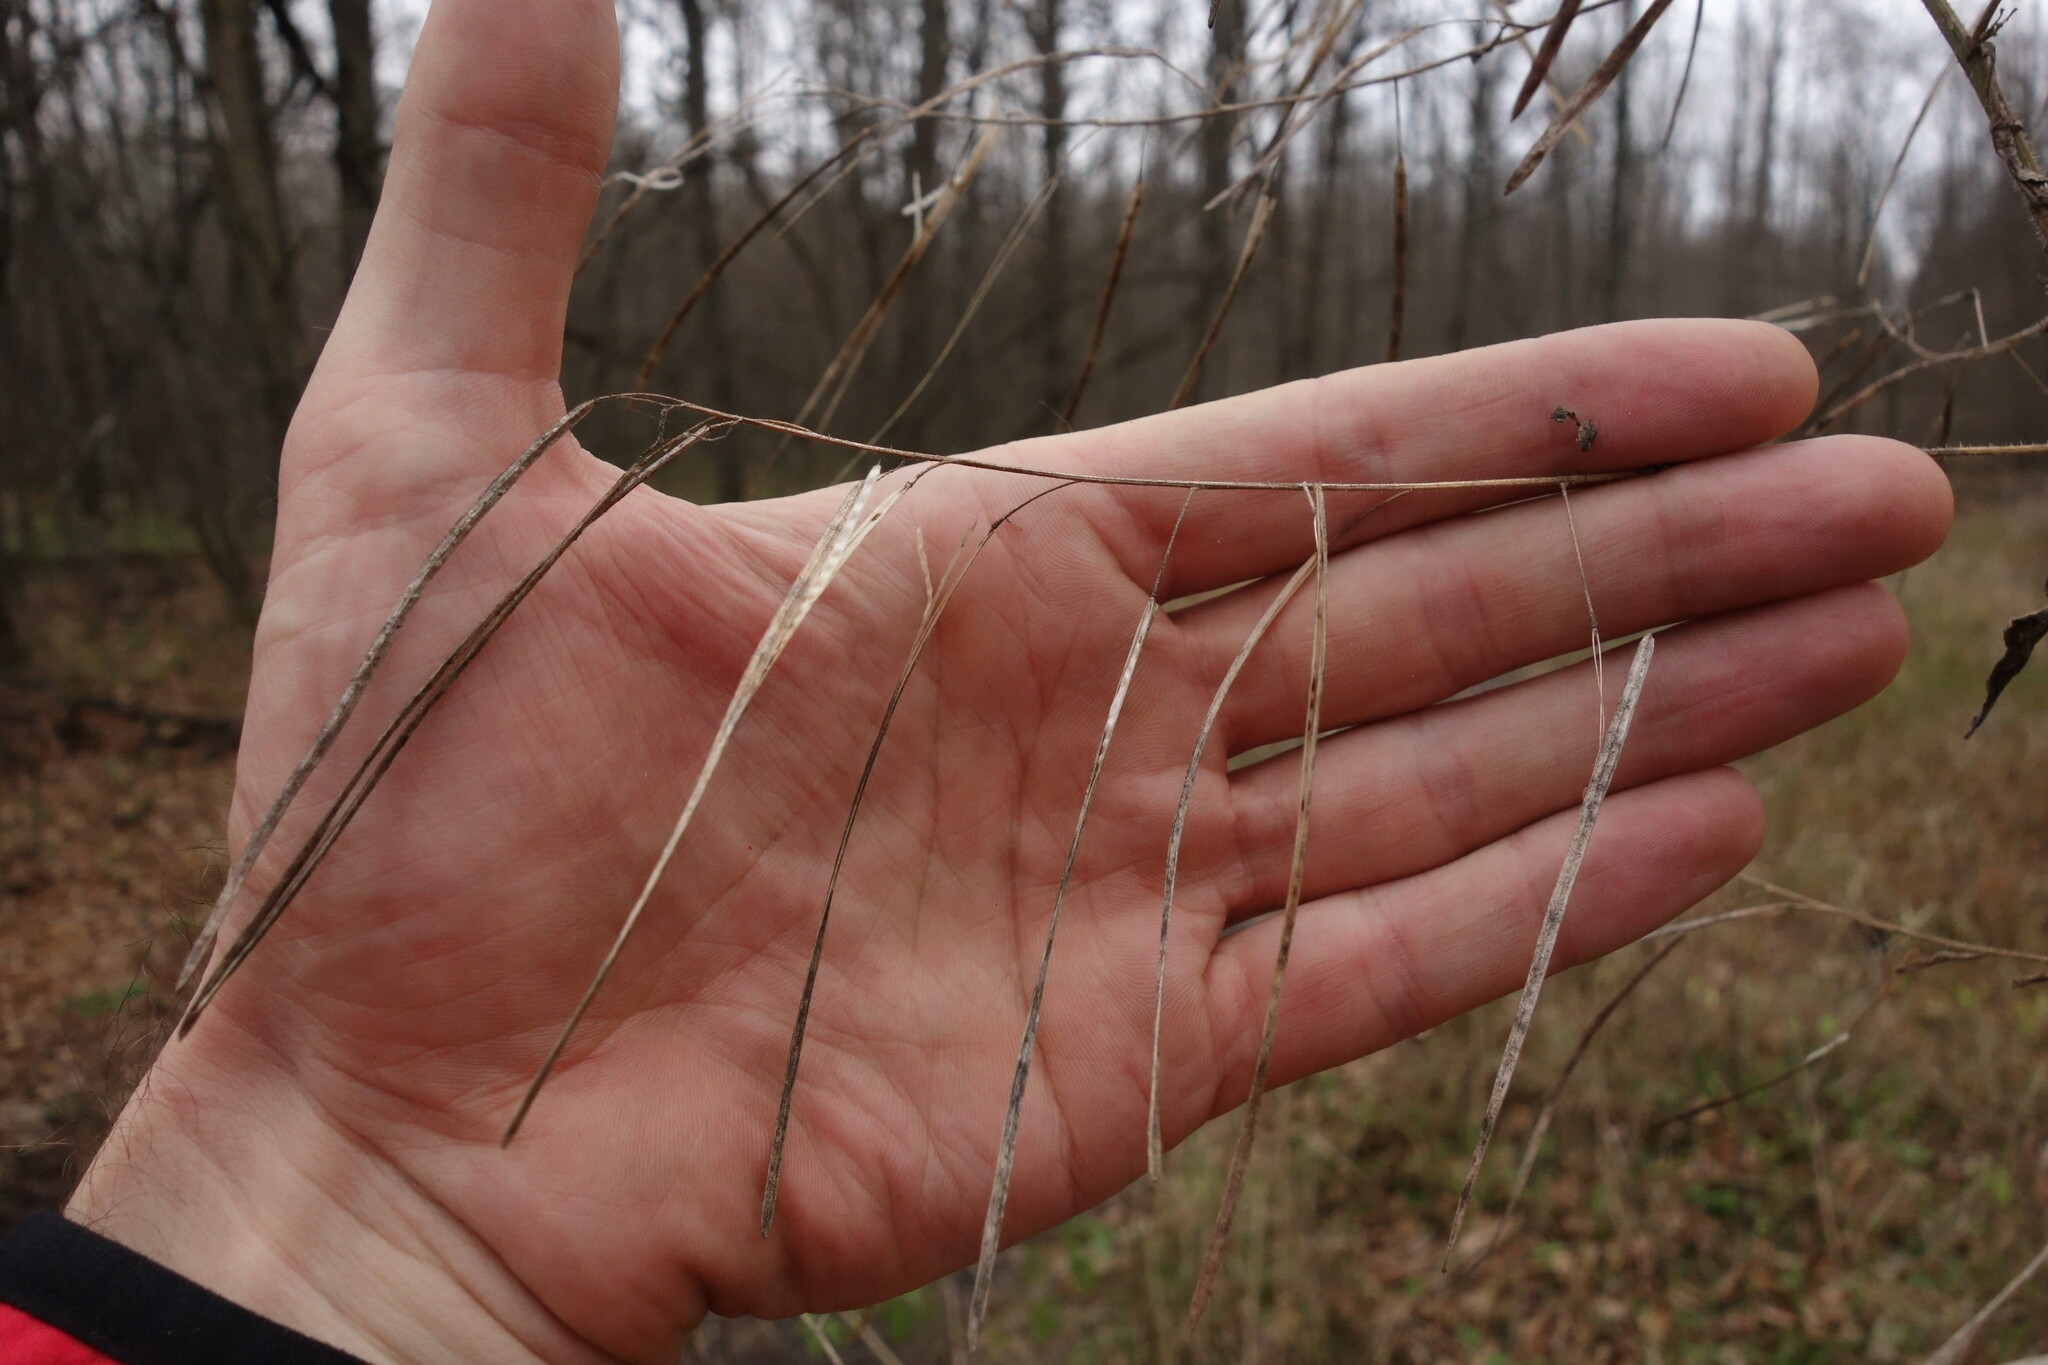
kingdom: Plantae
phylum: Tracheophyta
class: Magnoliopsida
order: Brassicales
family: Brassicaceae
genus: Catolobus
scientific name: Catolobus pendulus
